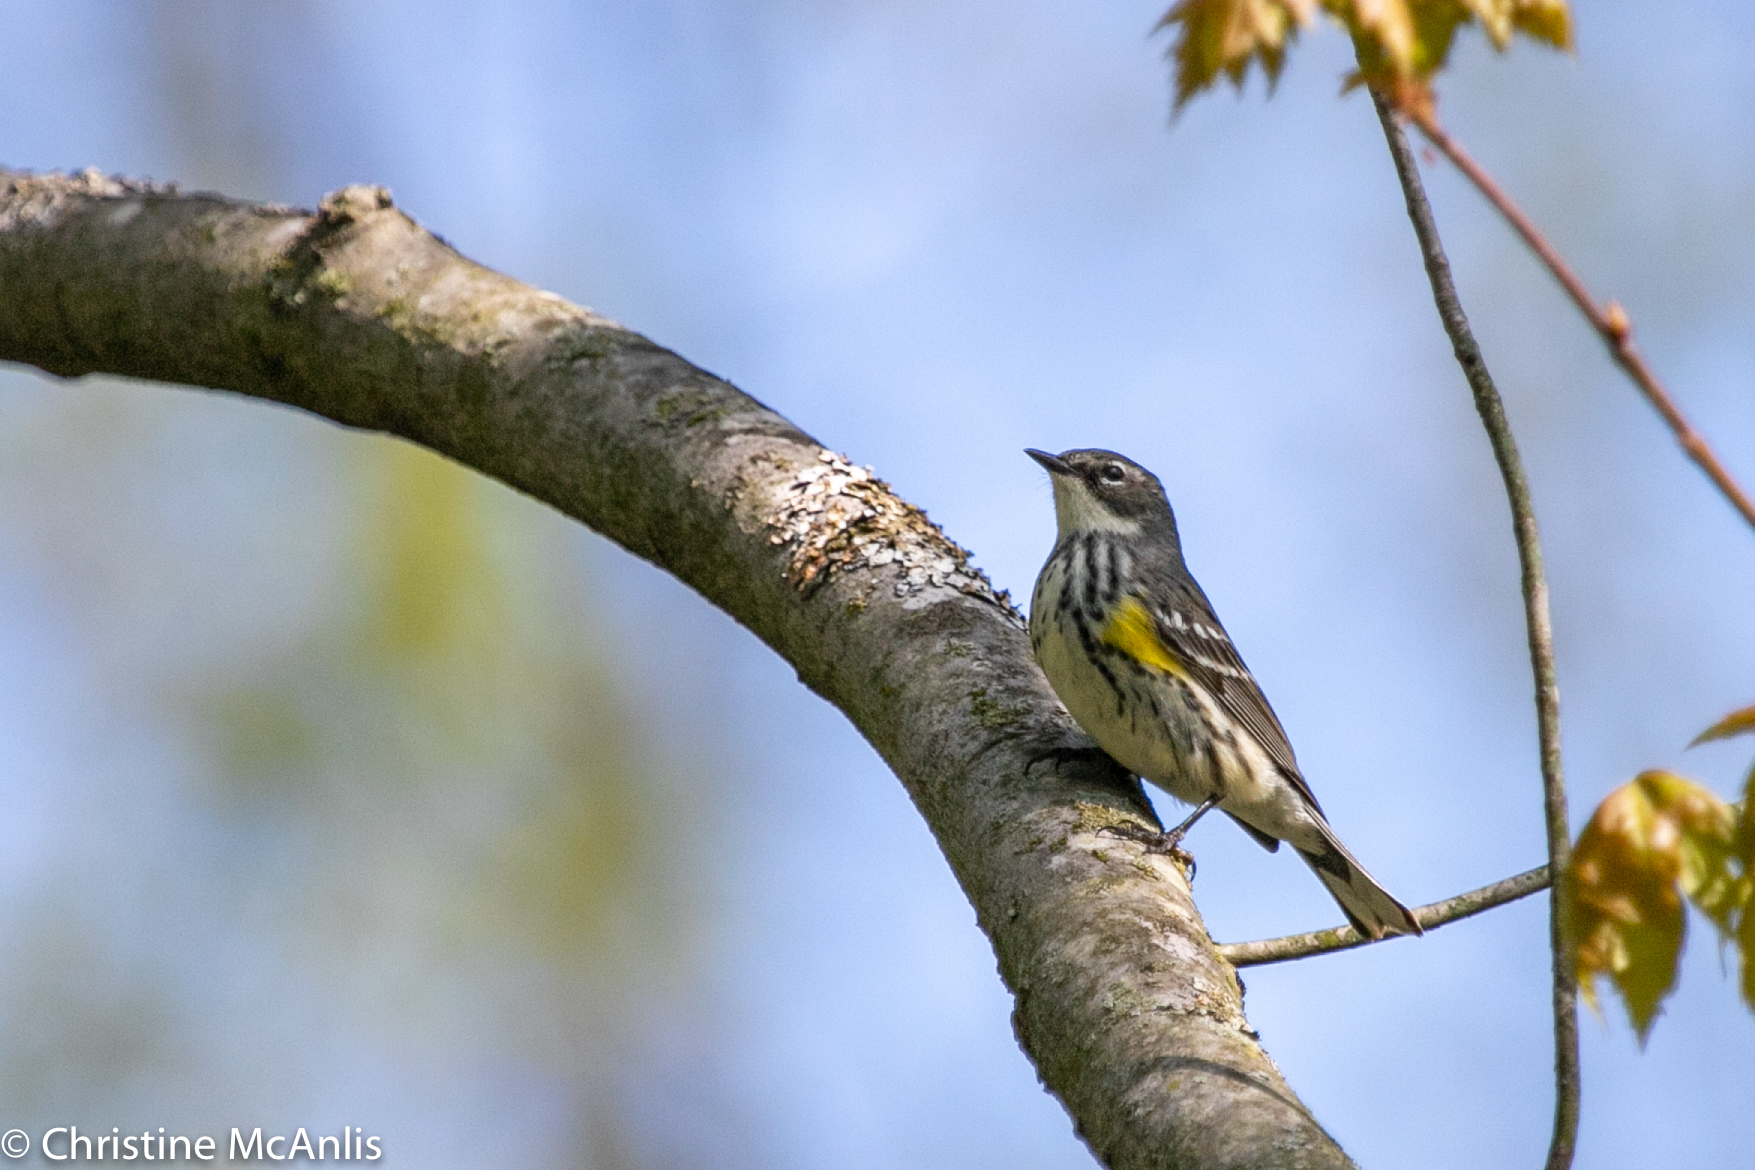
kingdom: Animalia
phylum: Chordata
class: Aves
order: Passeriformes
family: Parulidae
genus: Setophaga
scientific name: Setophaga coronata
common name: Myrtle warbler
